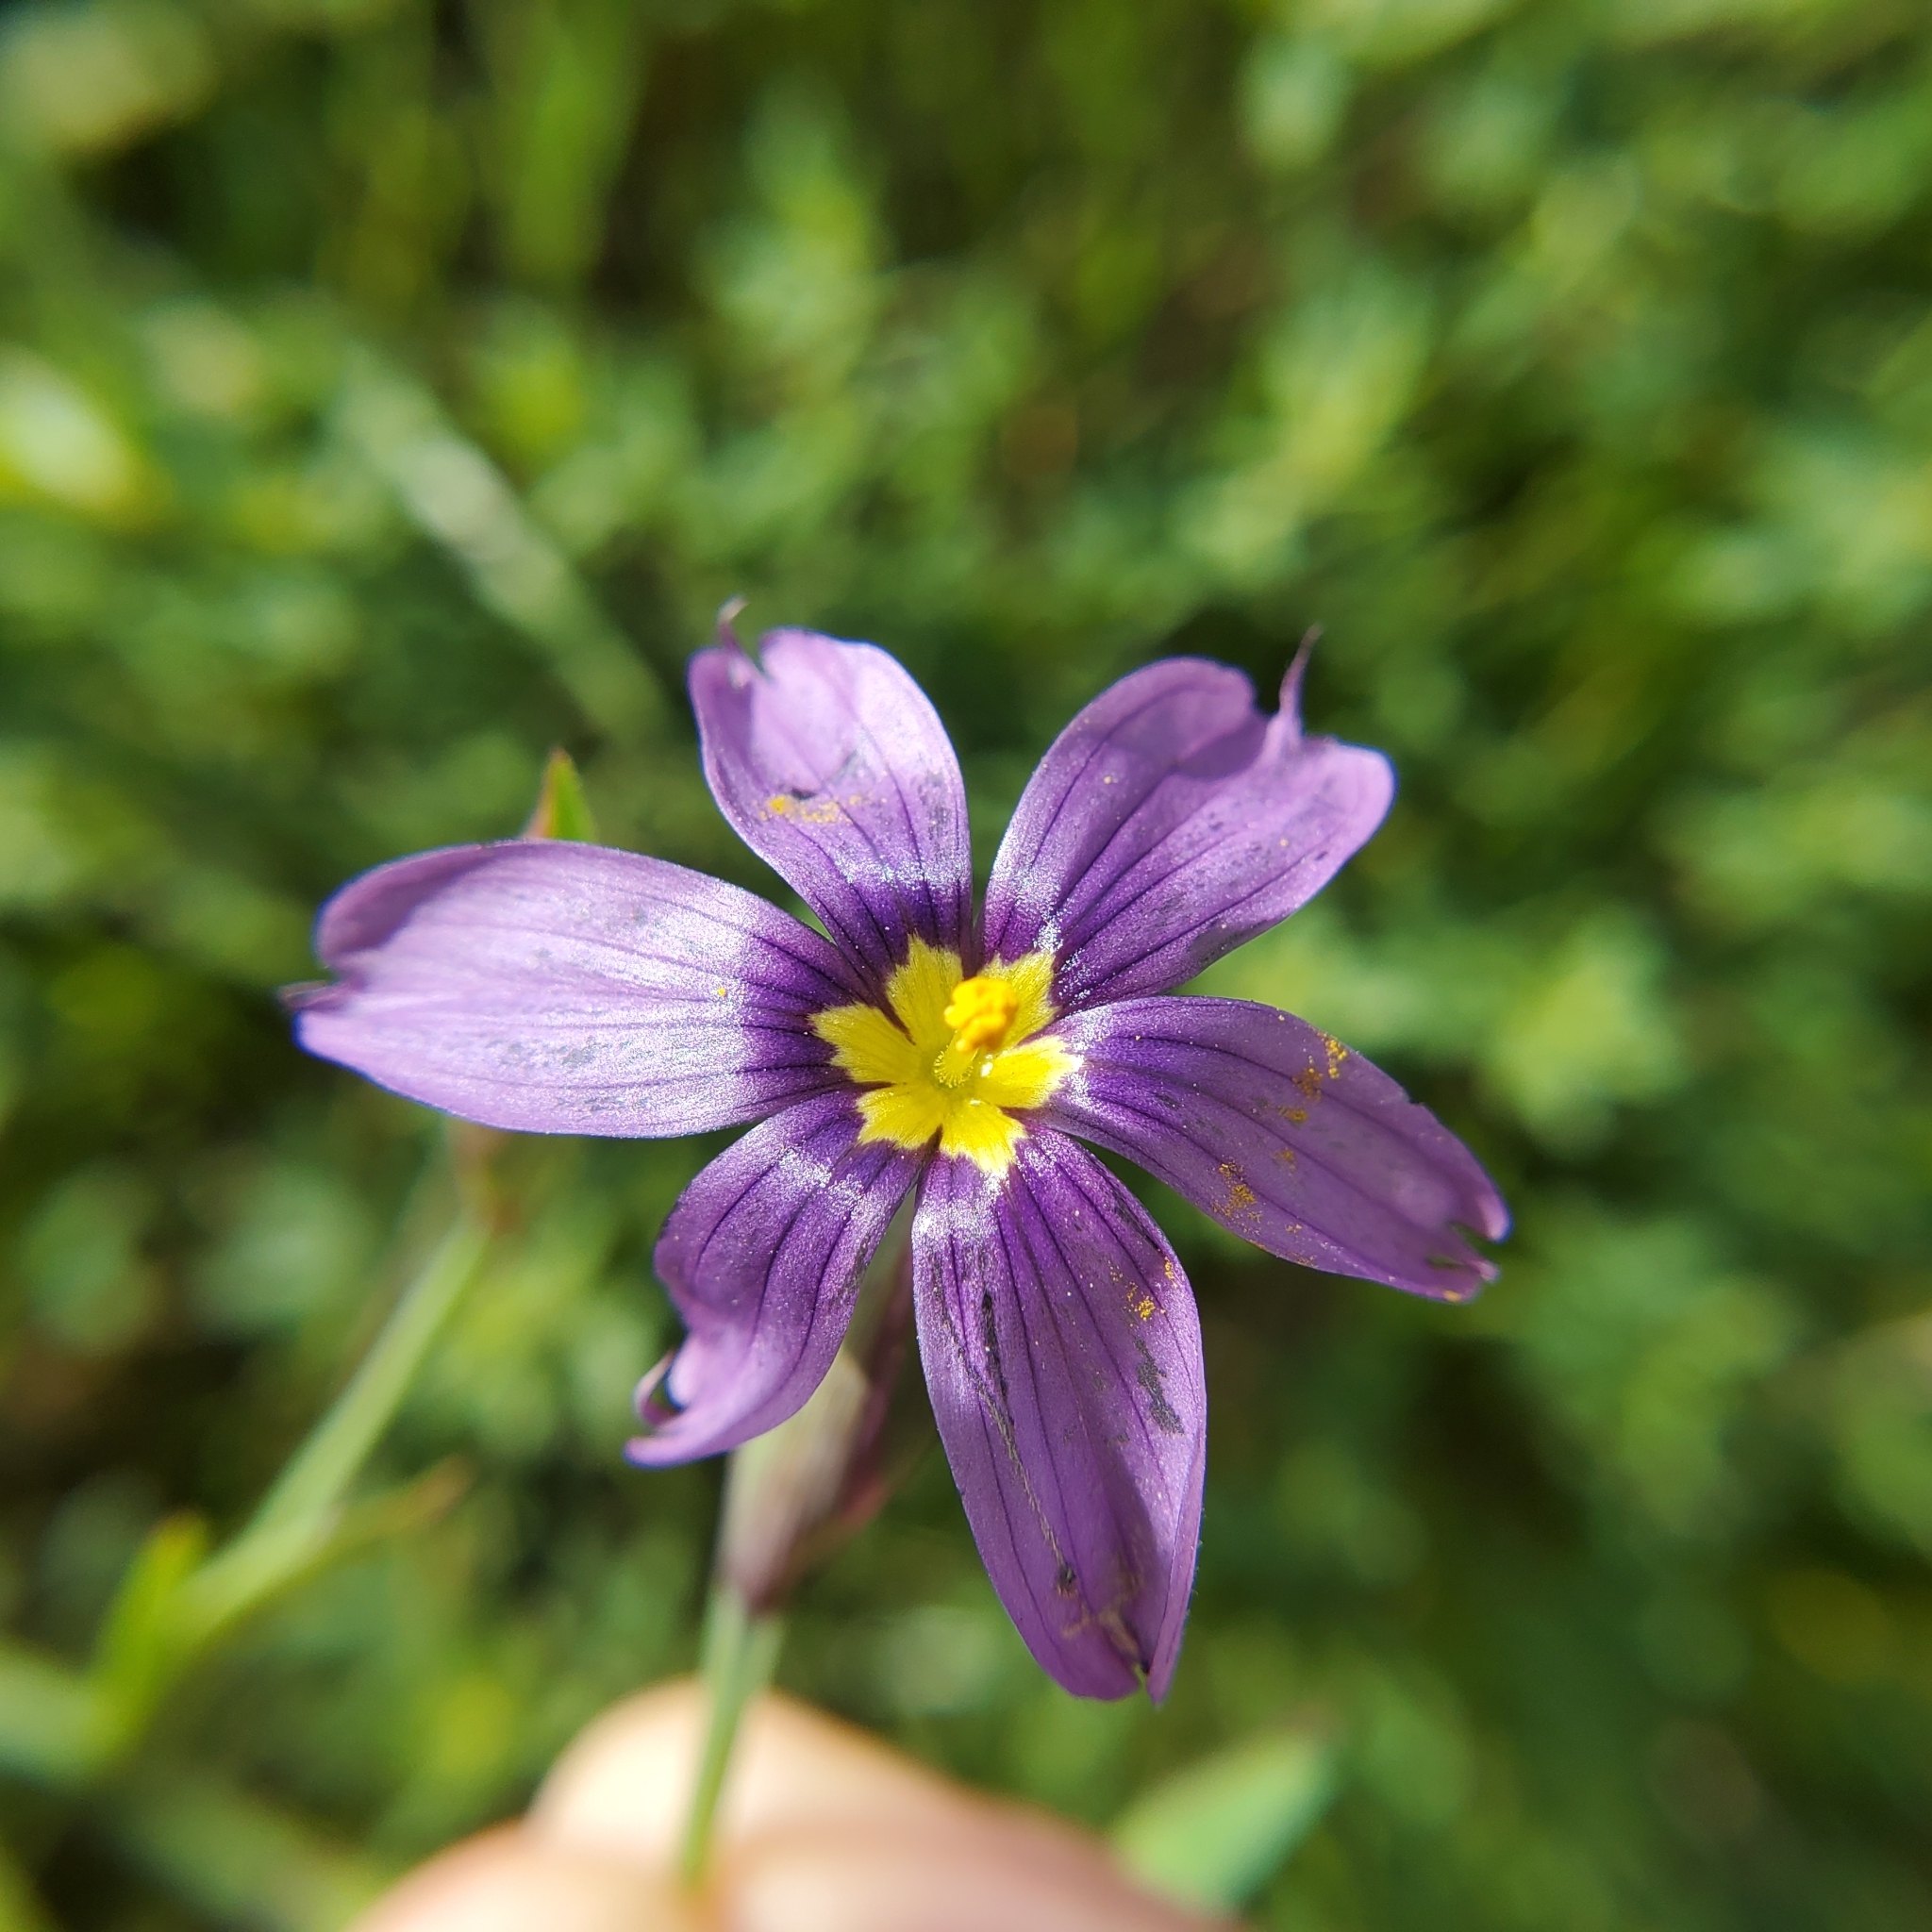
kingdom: Plantae
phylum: Tracheophyta
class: Liliopsida
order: Asparagales
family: Iridaceae
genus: Sisyrinchium
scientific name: Sisyrinchium bellum
